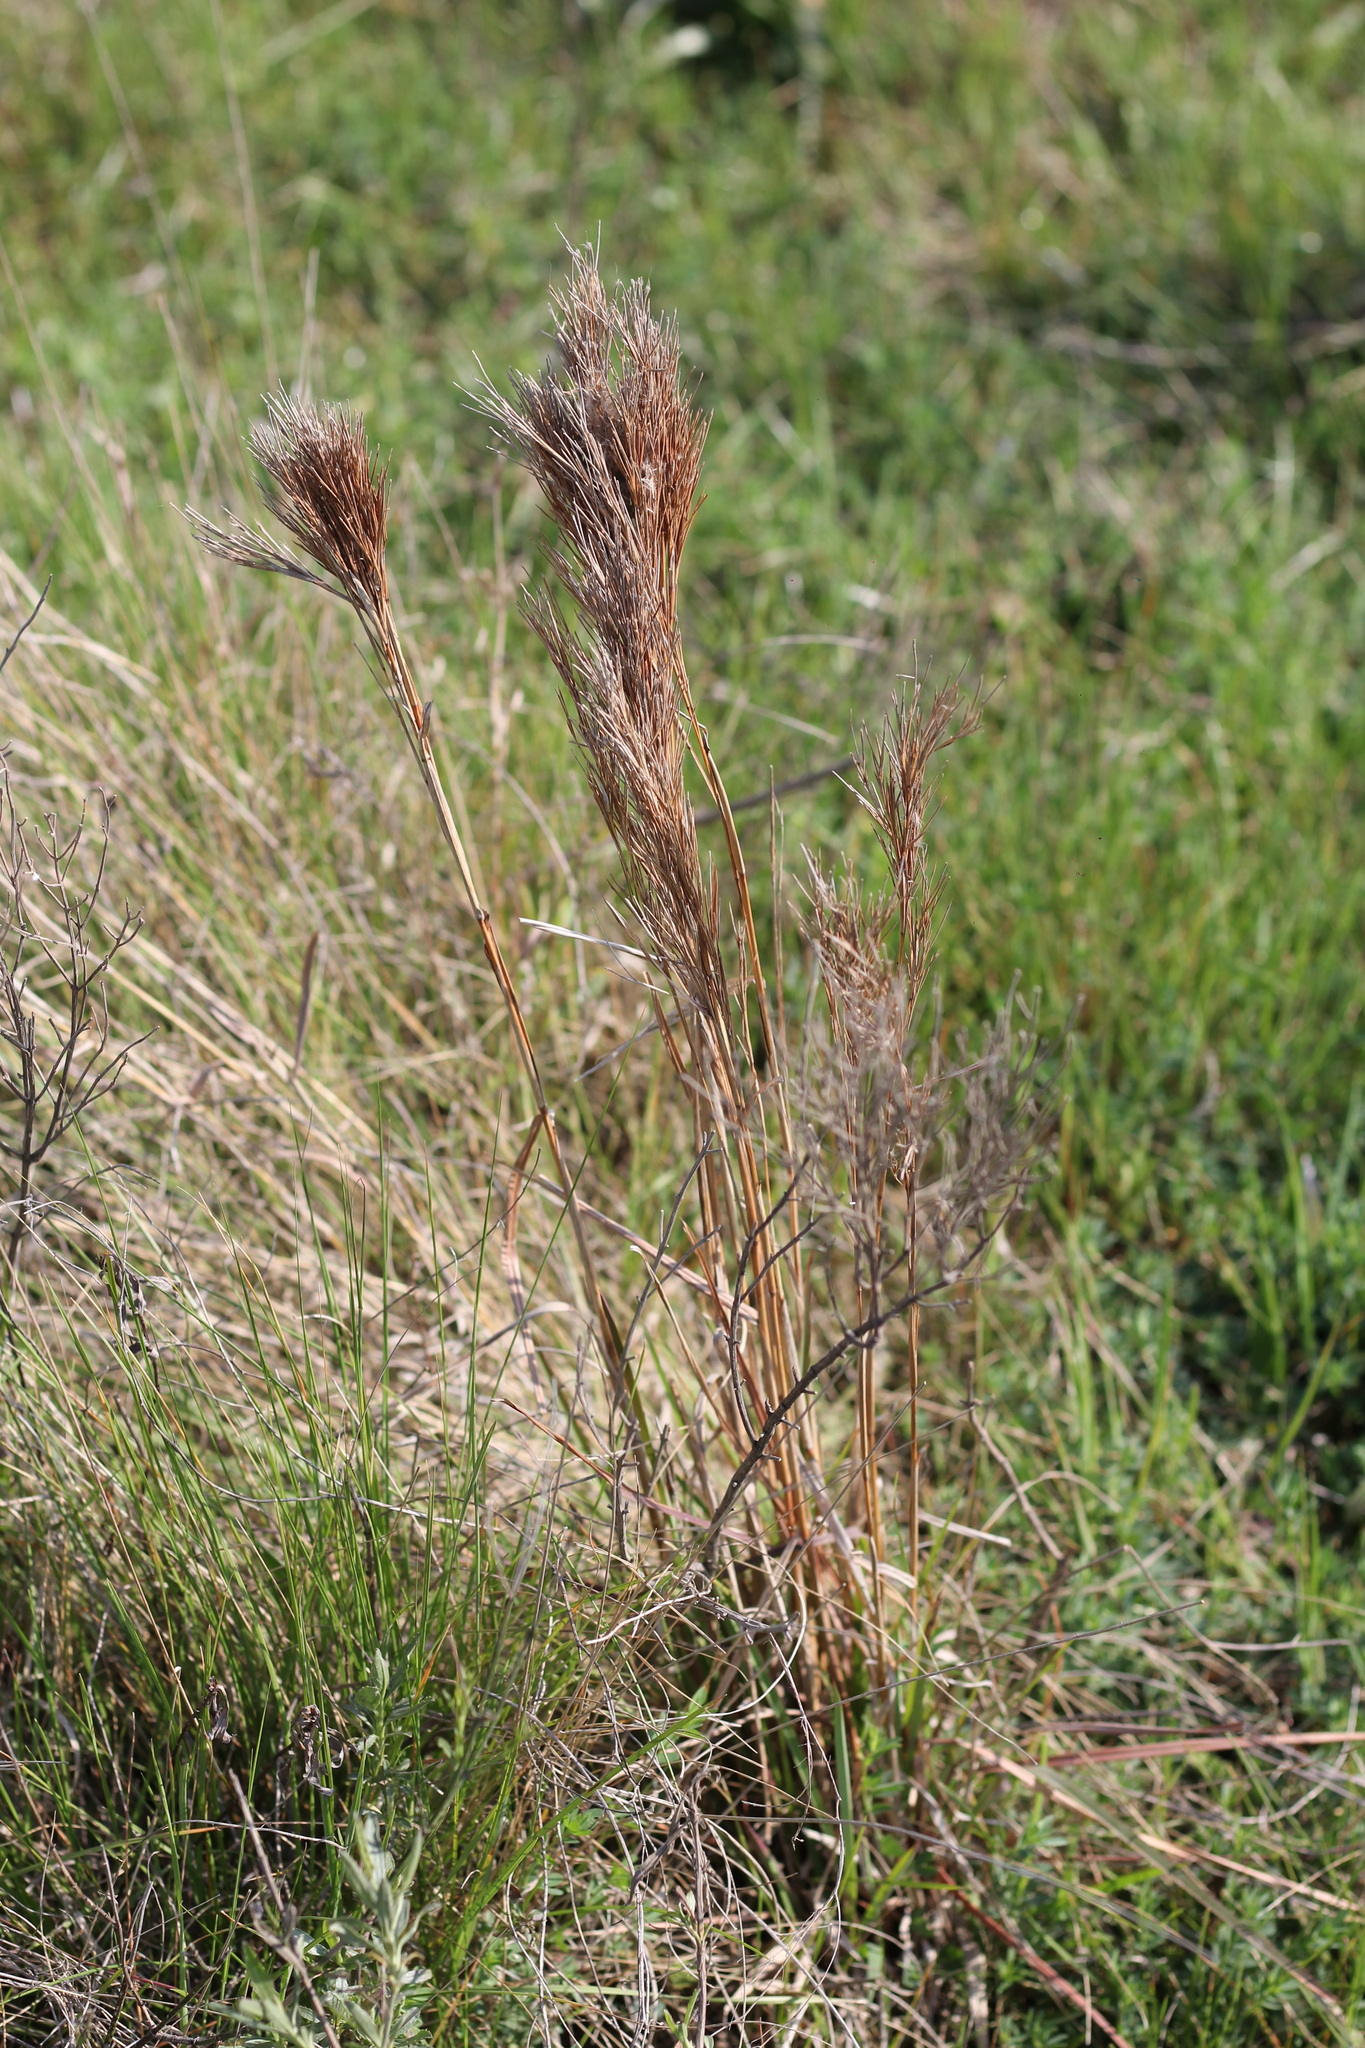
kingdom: Plantae
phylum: Tracheophyta
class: Liliopsida
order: Poales
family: Poaceae
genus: Schizachyrium
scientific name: Schizachyrium condensatum
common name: Bush beardgrass
